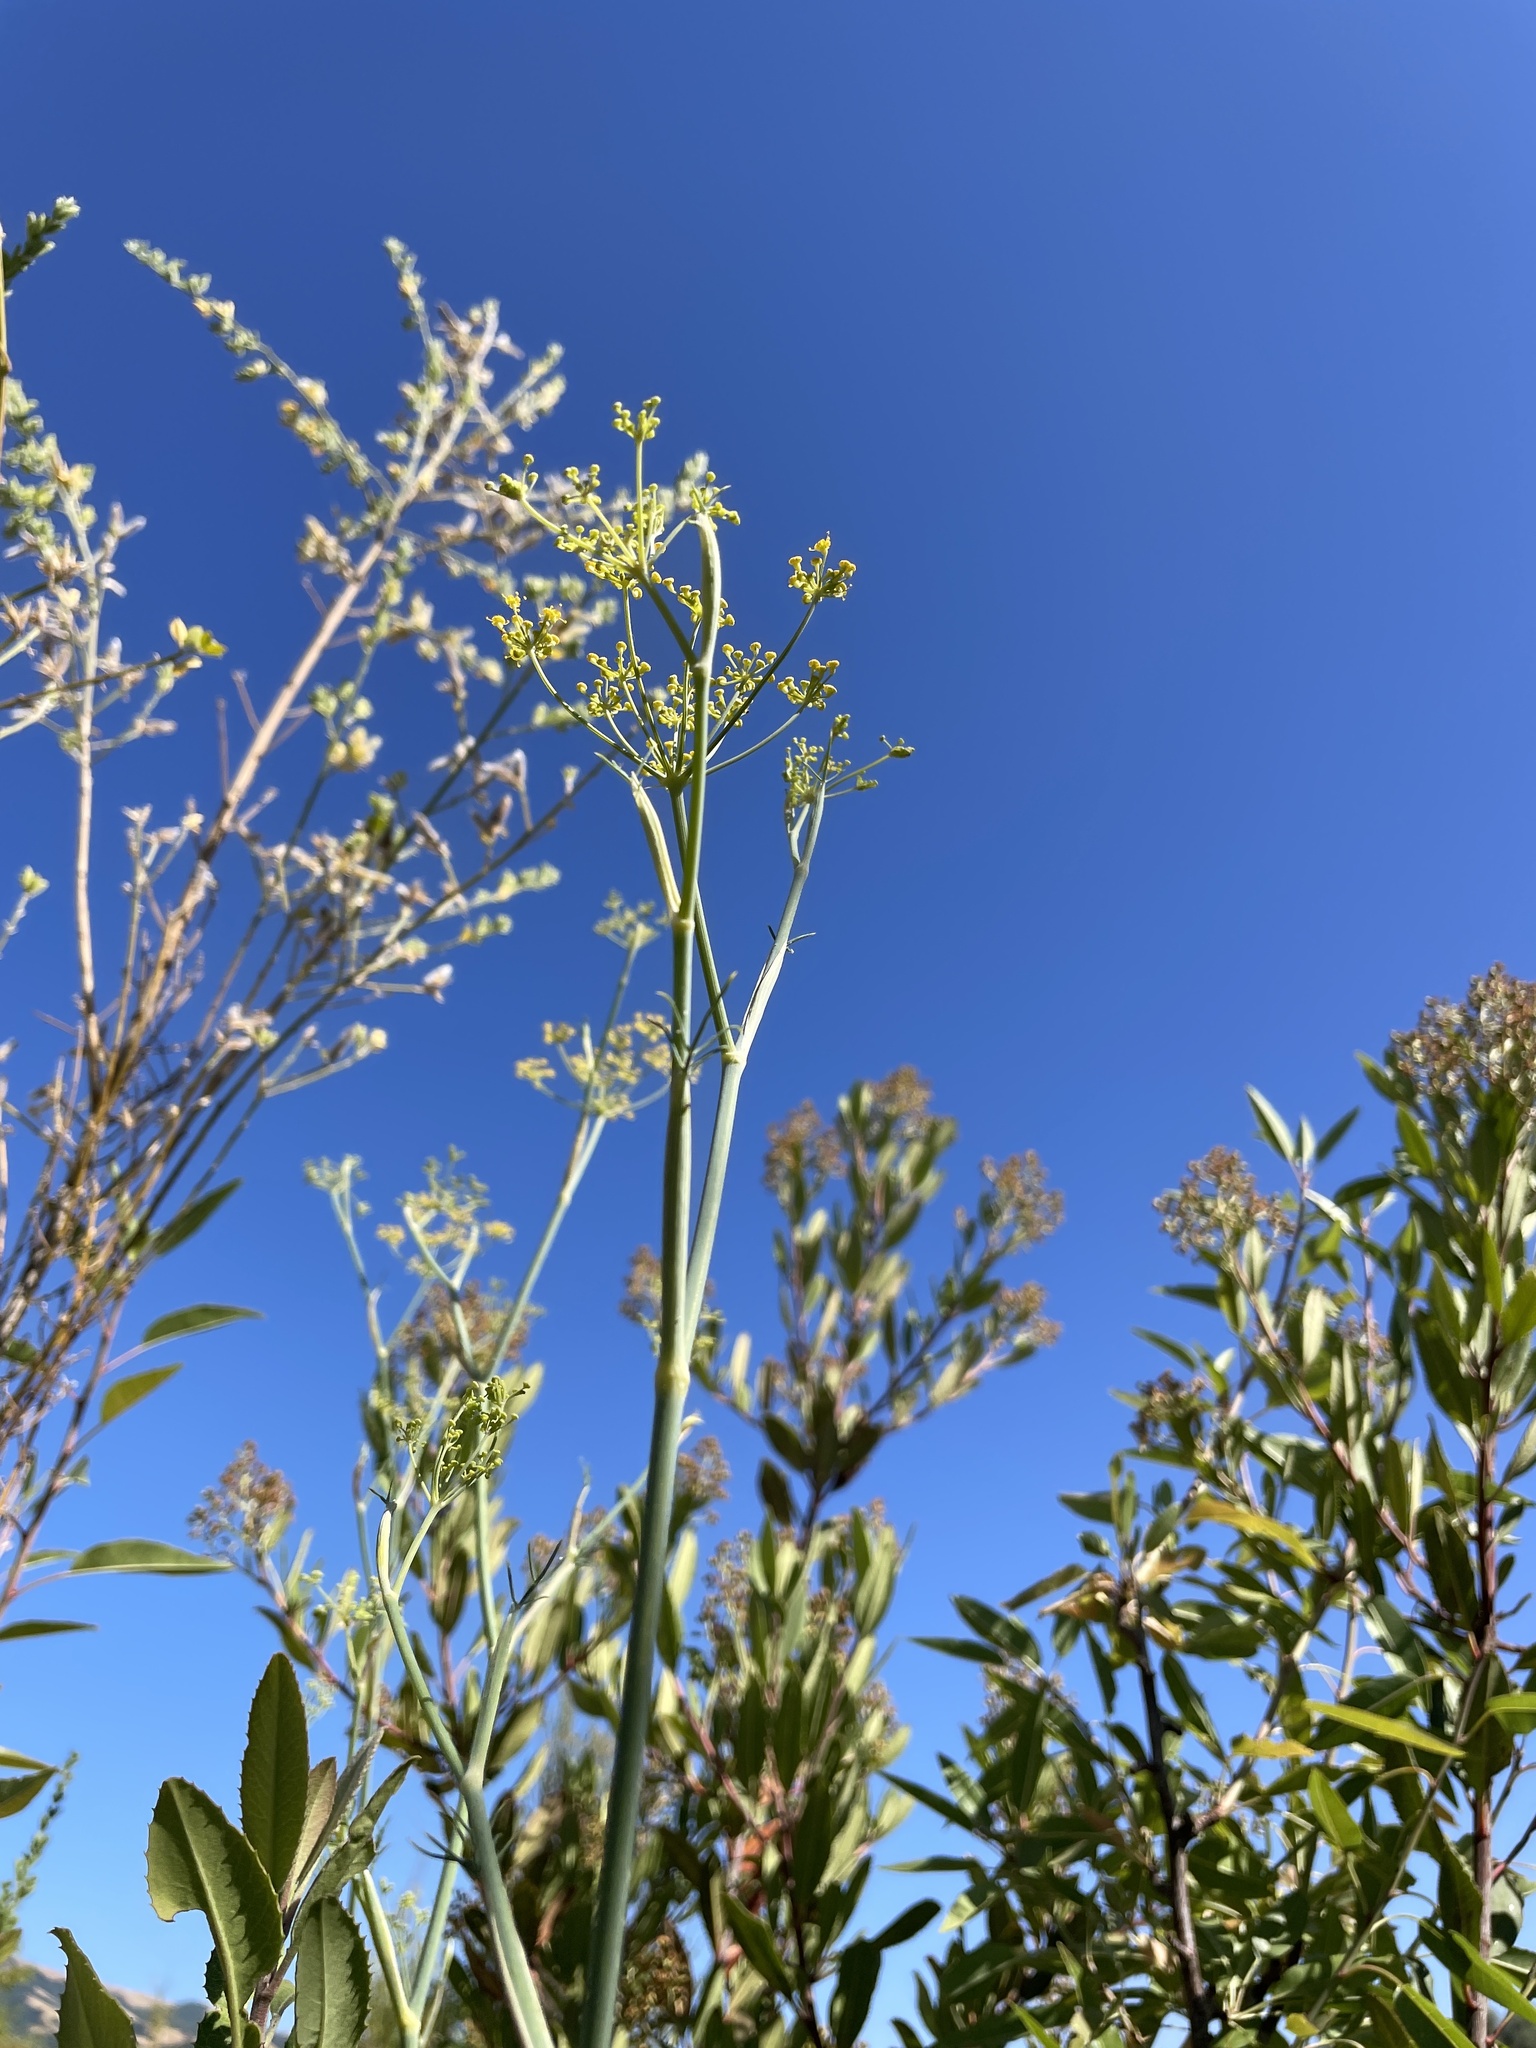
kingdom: Plantae
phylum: Tracheophyta
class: Magnoliopsida
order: Apiales
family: Apiaceae
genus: Foeniculum
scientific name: Foeniculum vulgare
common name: Fennel
